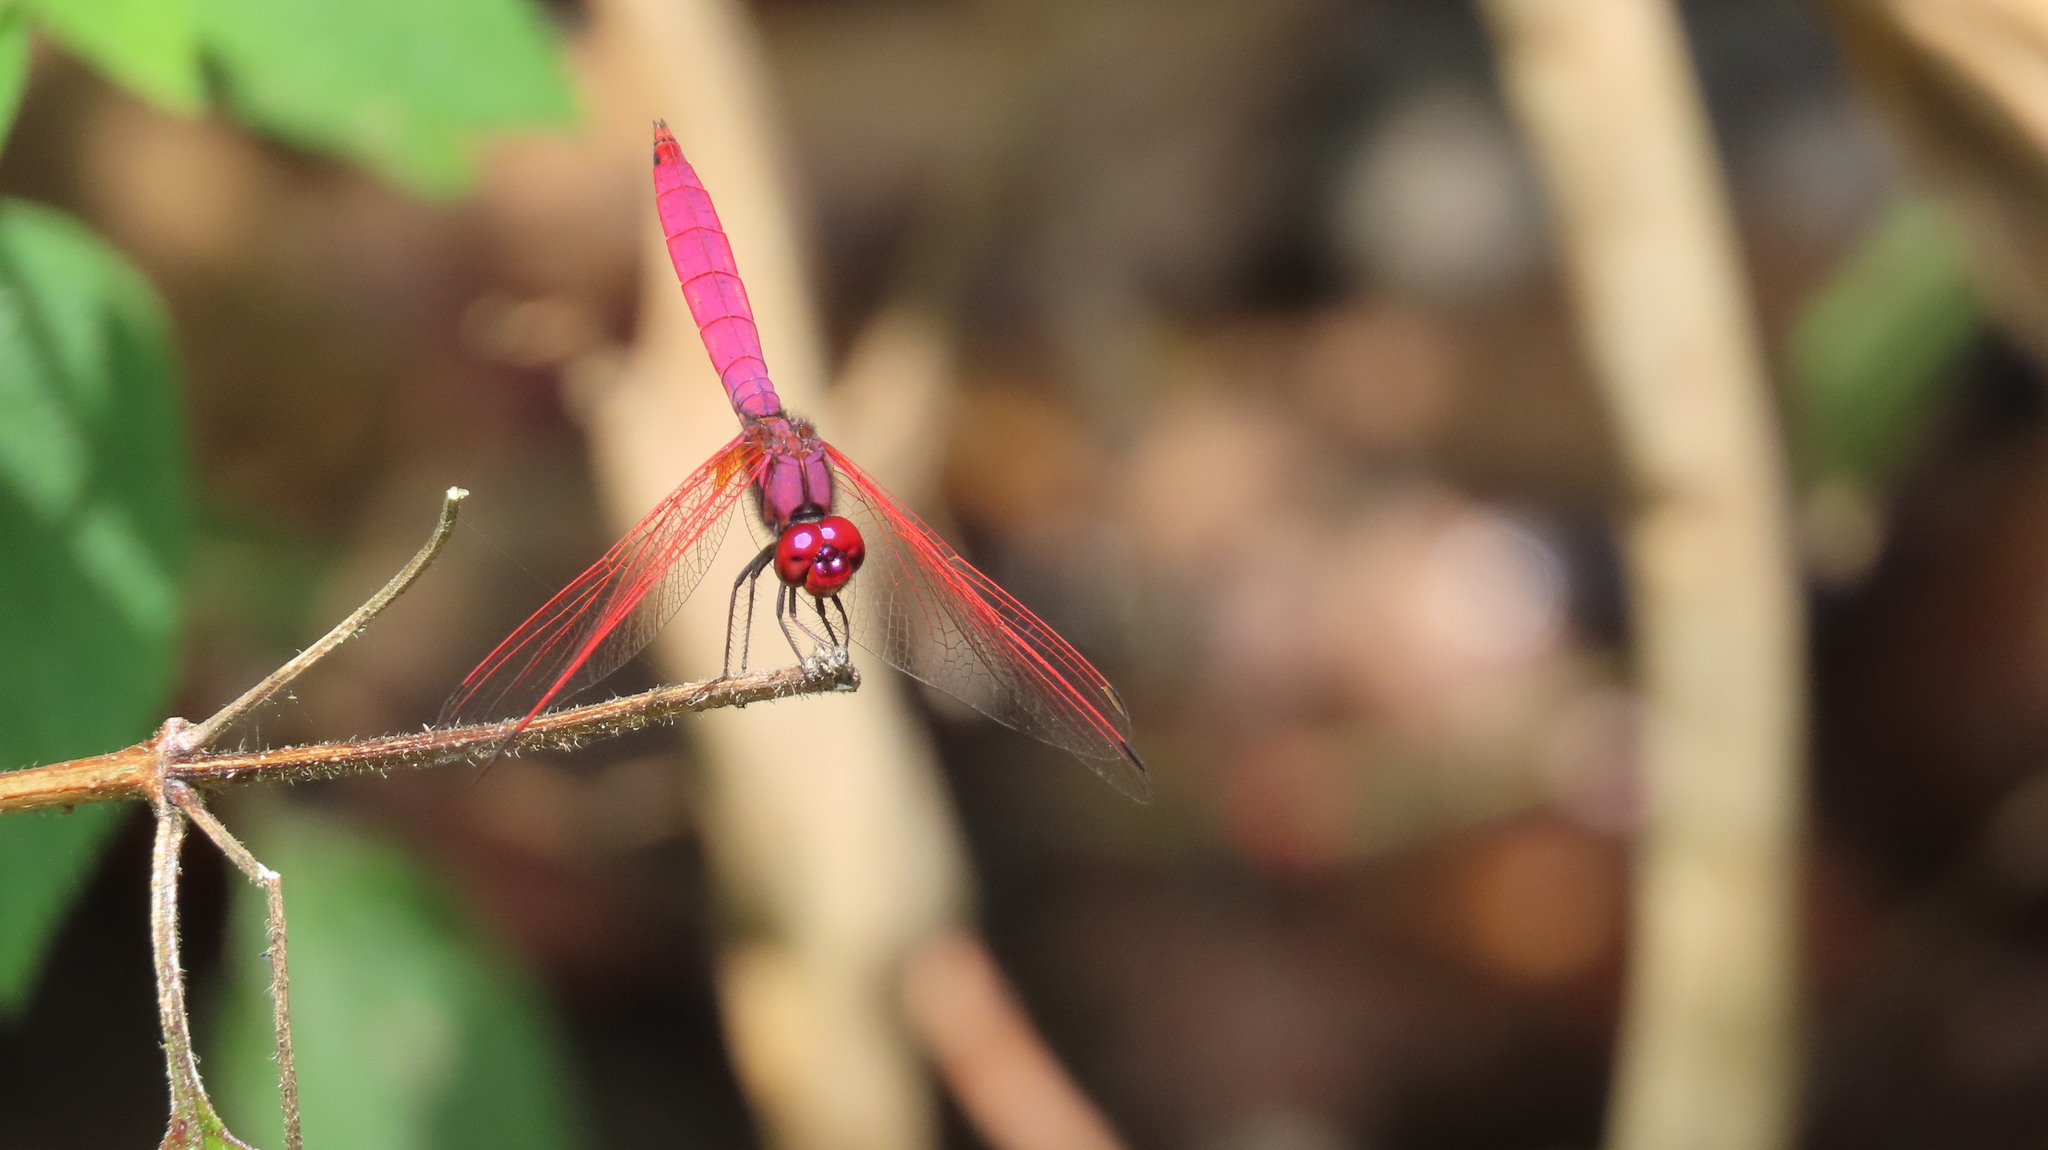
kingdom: Animalia
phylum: Arthropoda
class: Insecta
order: Odonata
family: Libellulidae
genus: Trithemis
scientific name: Trithemis aurora
